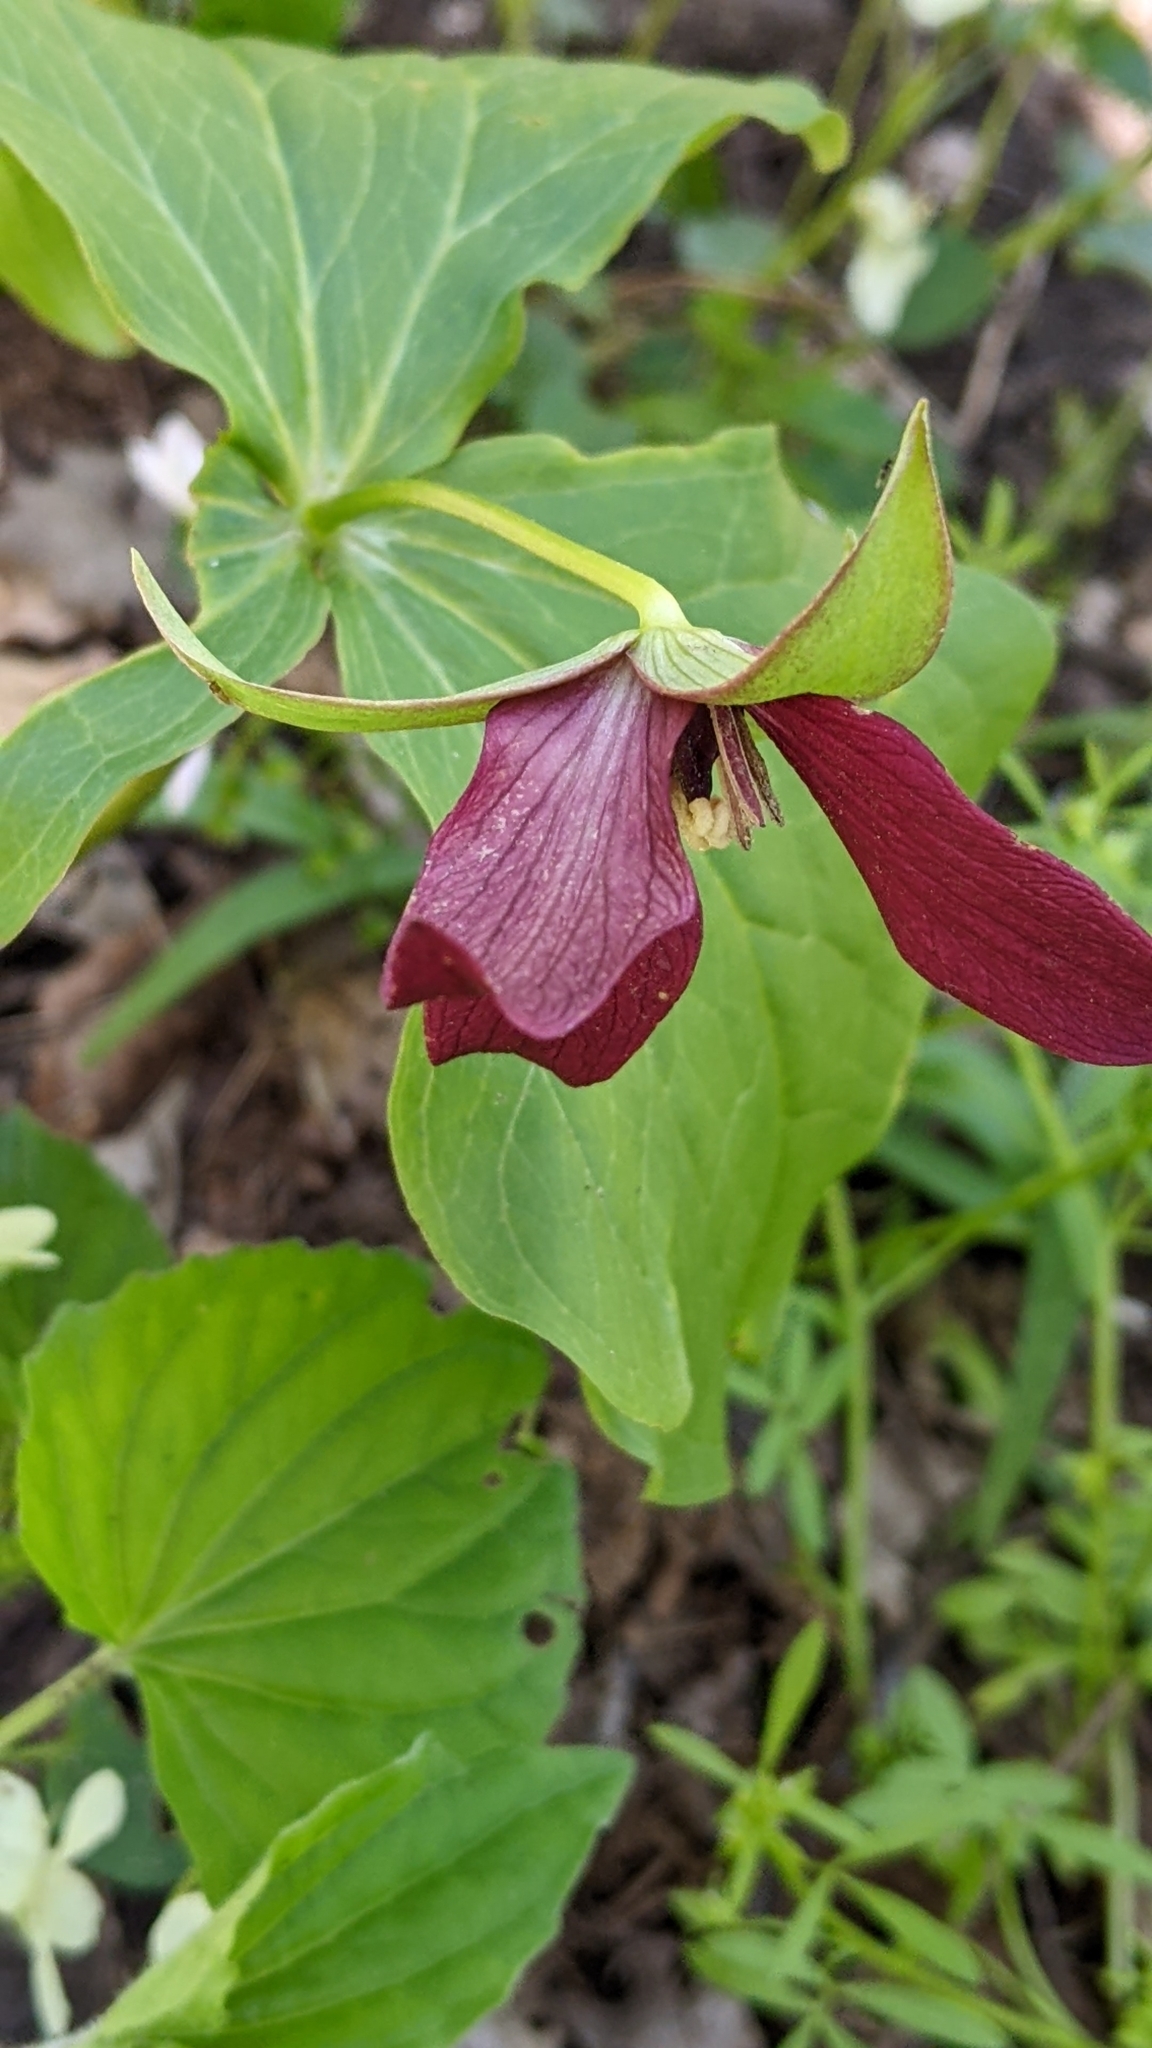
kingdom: Plantae
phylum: Tracheophyta
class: Liliopsida
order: Liliales
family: Melanthiaceae
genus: Trillium
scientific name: Trillium erectum
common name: Purple trillium
